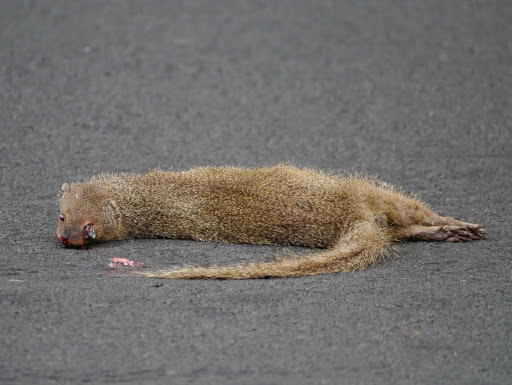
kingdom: Animalia
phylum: Chordata
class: Mammalia
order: Carnivora
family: Herpestidae
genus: Herpestes
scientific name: Herpestes javanicus
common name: Small asian mongoose
